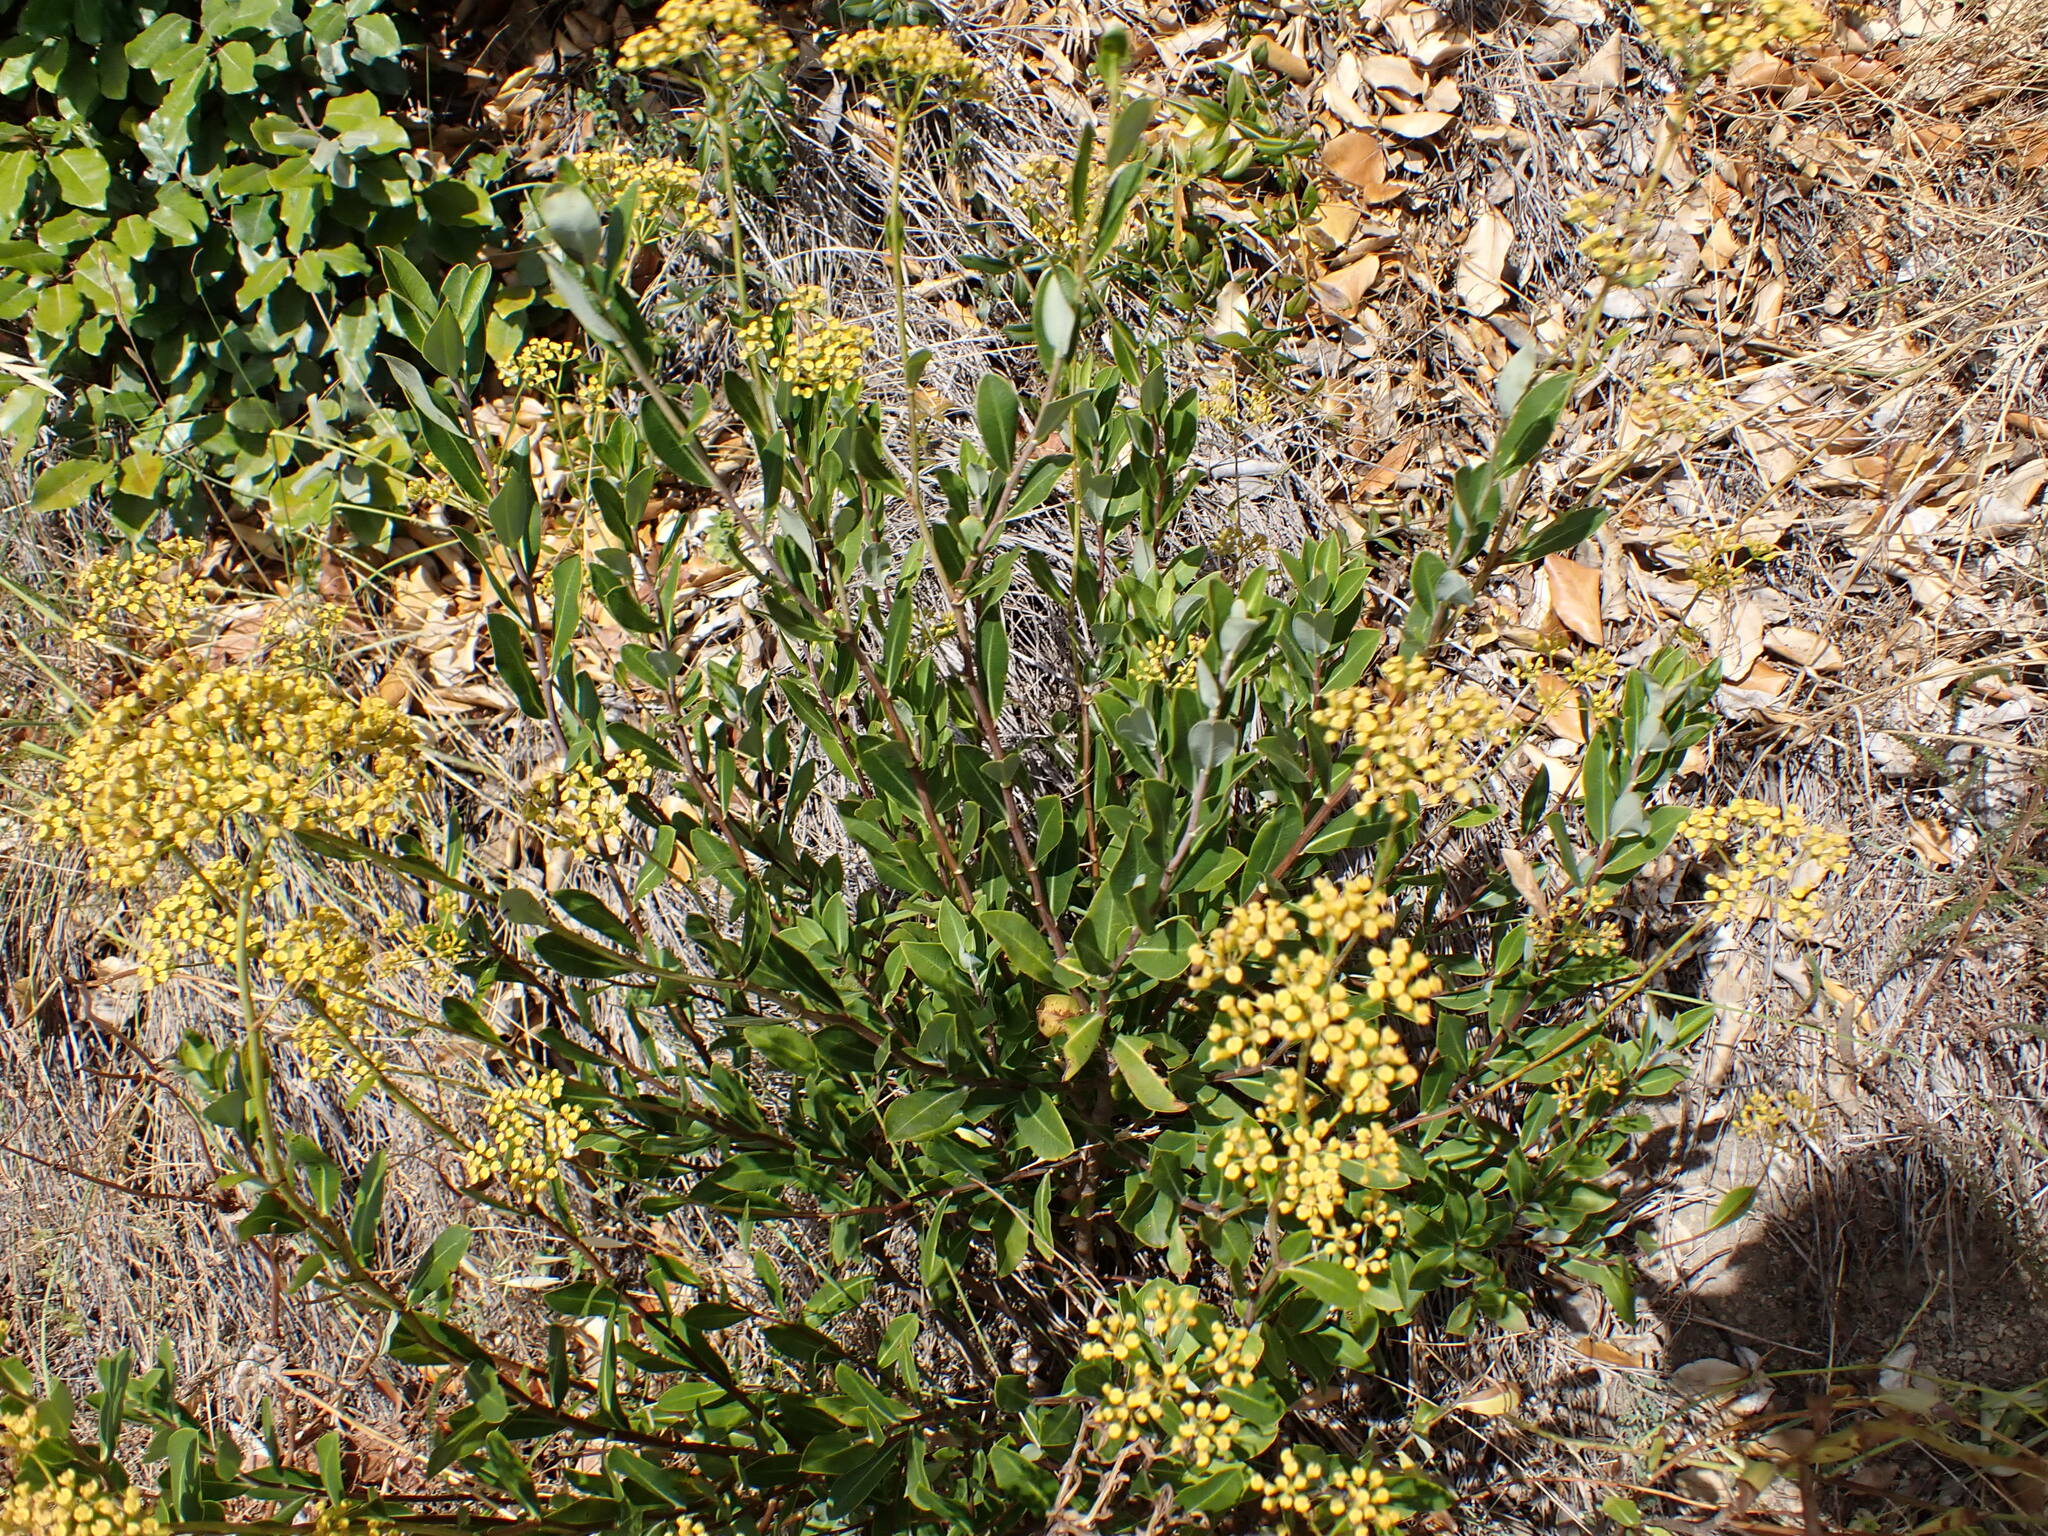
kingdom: Plantae
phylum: Tracheophyta
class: Magnoliopsida
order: Apiales
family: Apiaceae
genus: Bupleurum
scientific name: Bupleurum fruticosum
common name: Shrubby hare's-ear
